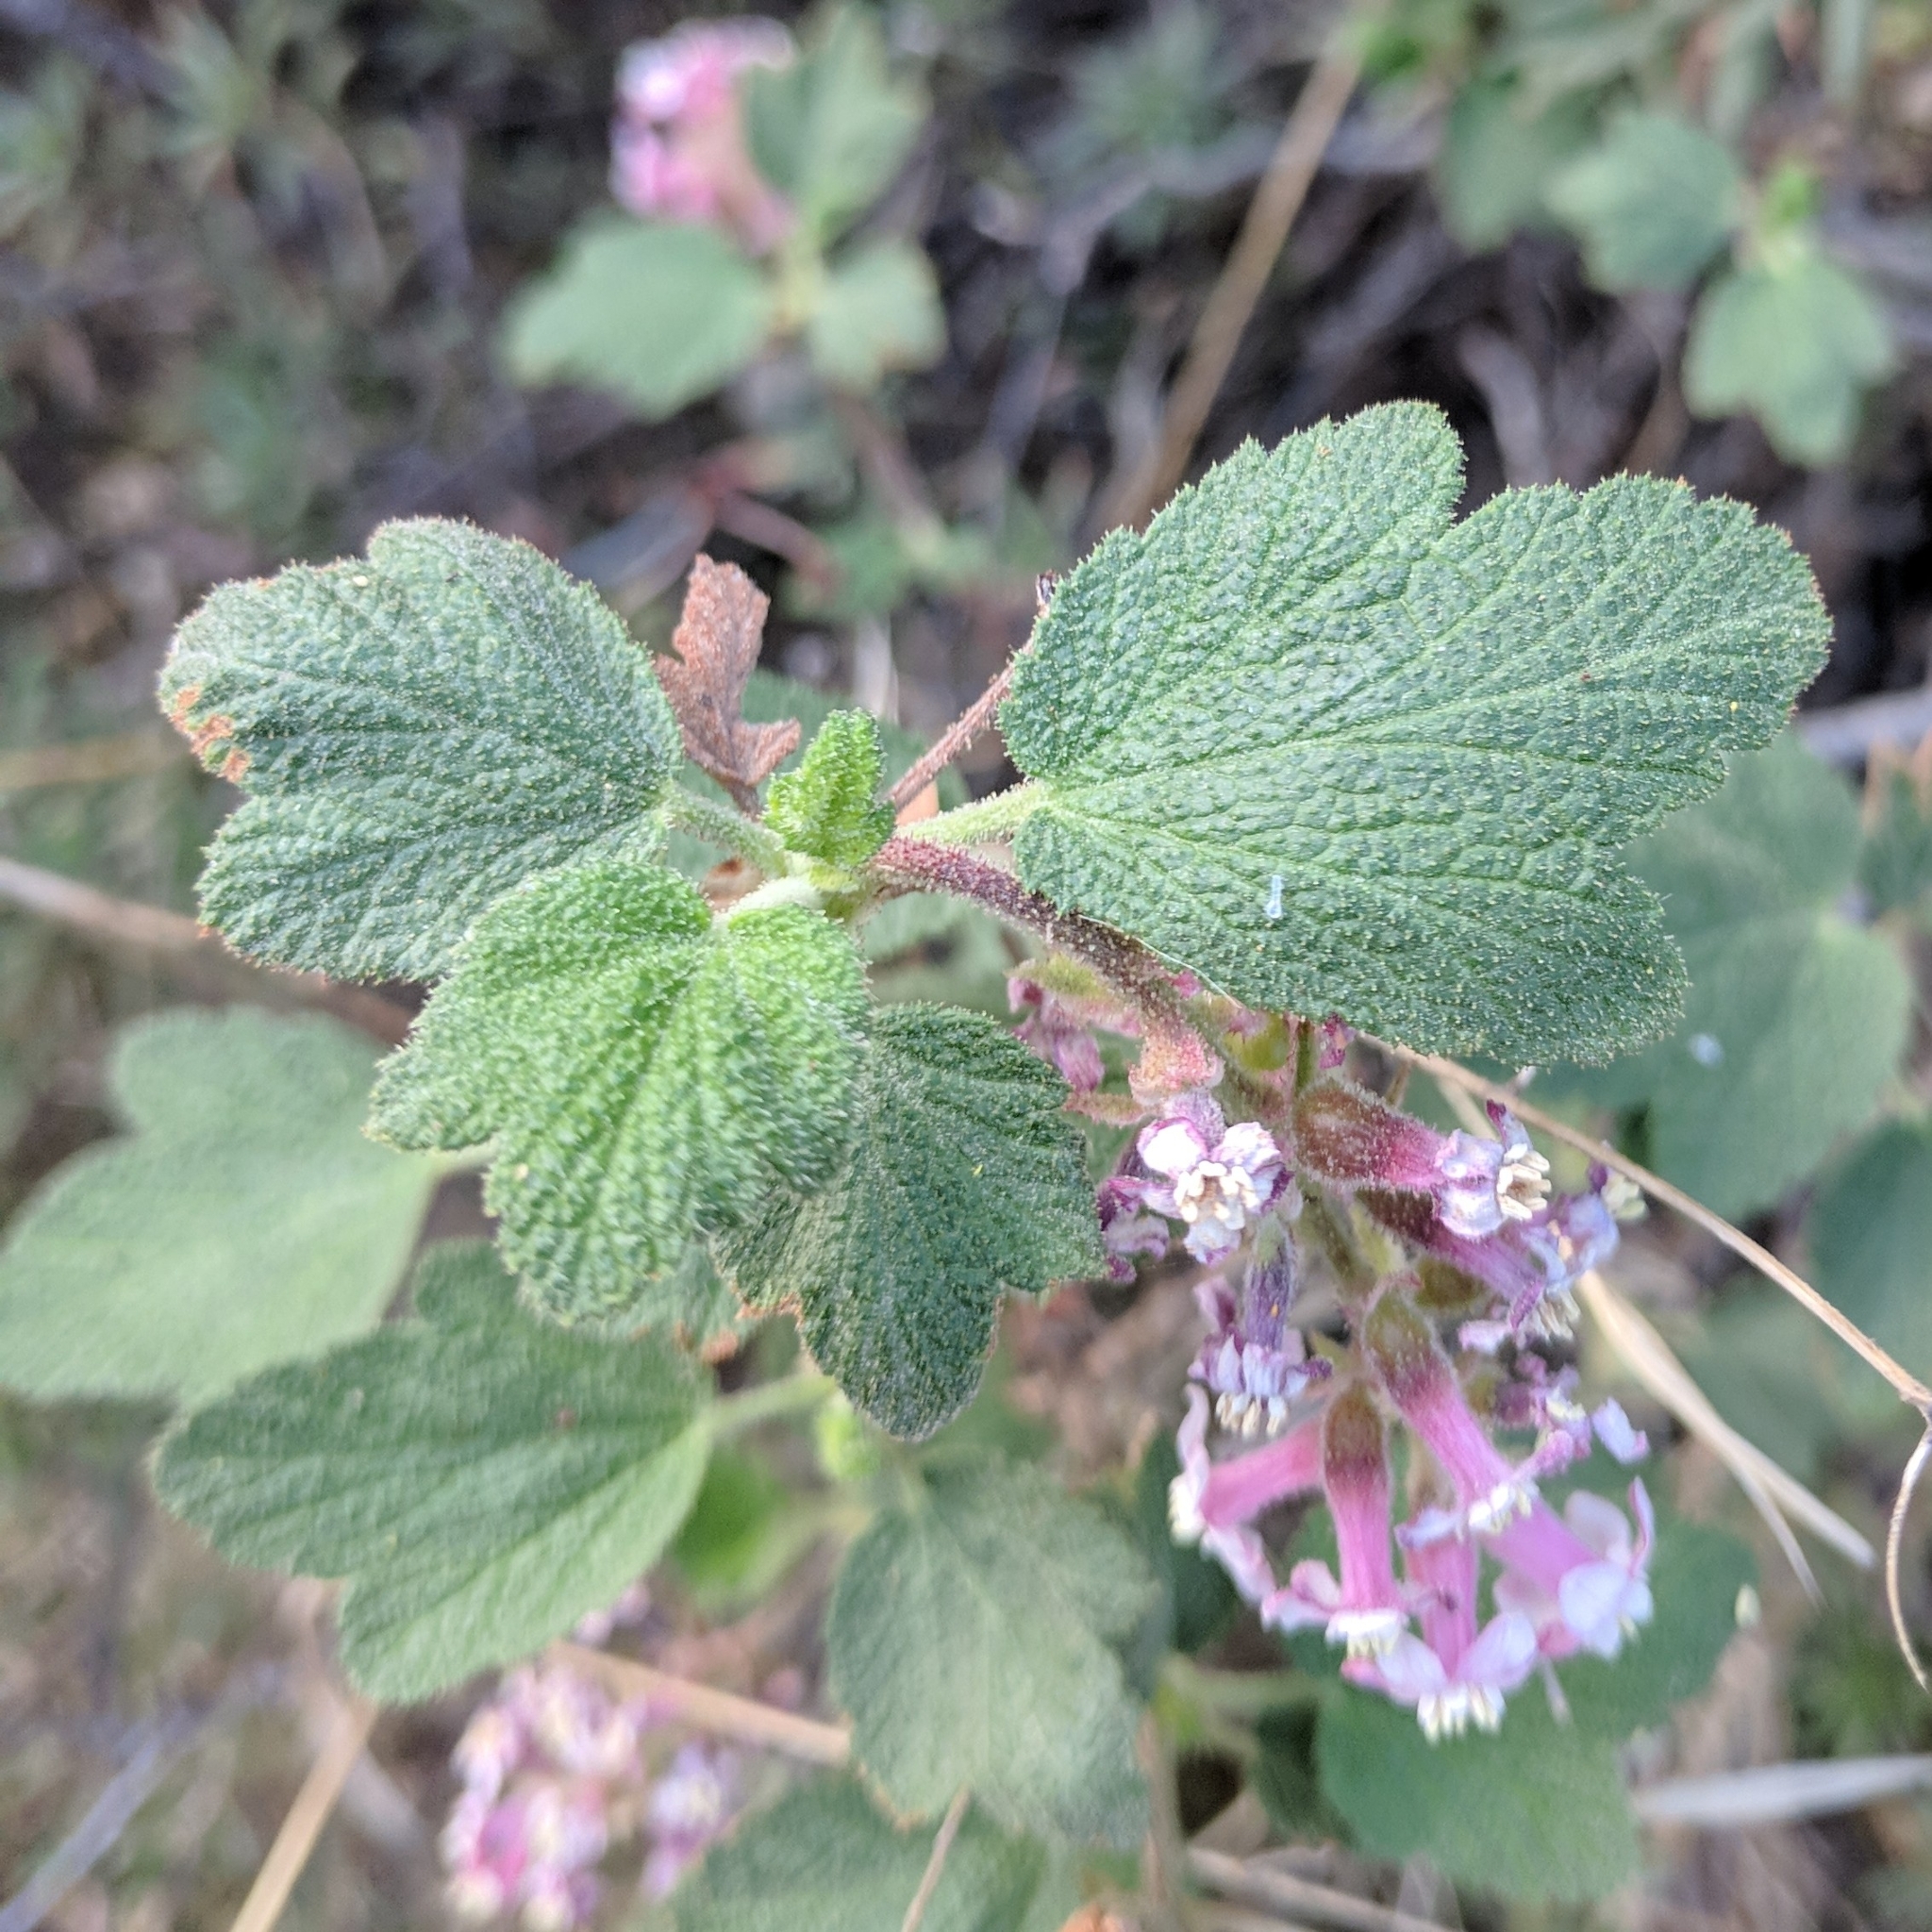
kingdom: Plantae
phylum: Tracheophyta
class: Magnoliopsida
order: Saxifragales
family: Grossulariaceae
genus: Ribes
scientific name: Ribes malvaceum
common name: Chaparral currant
